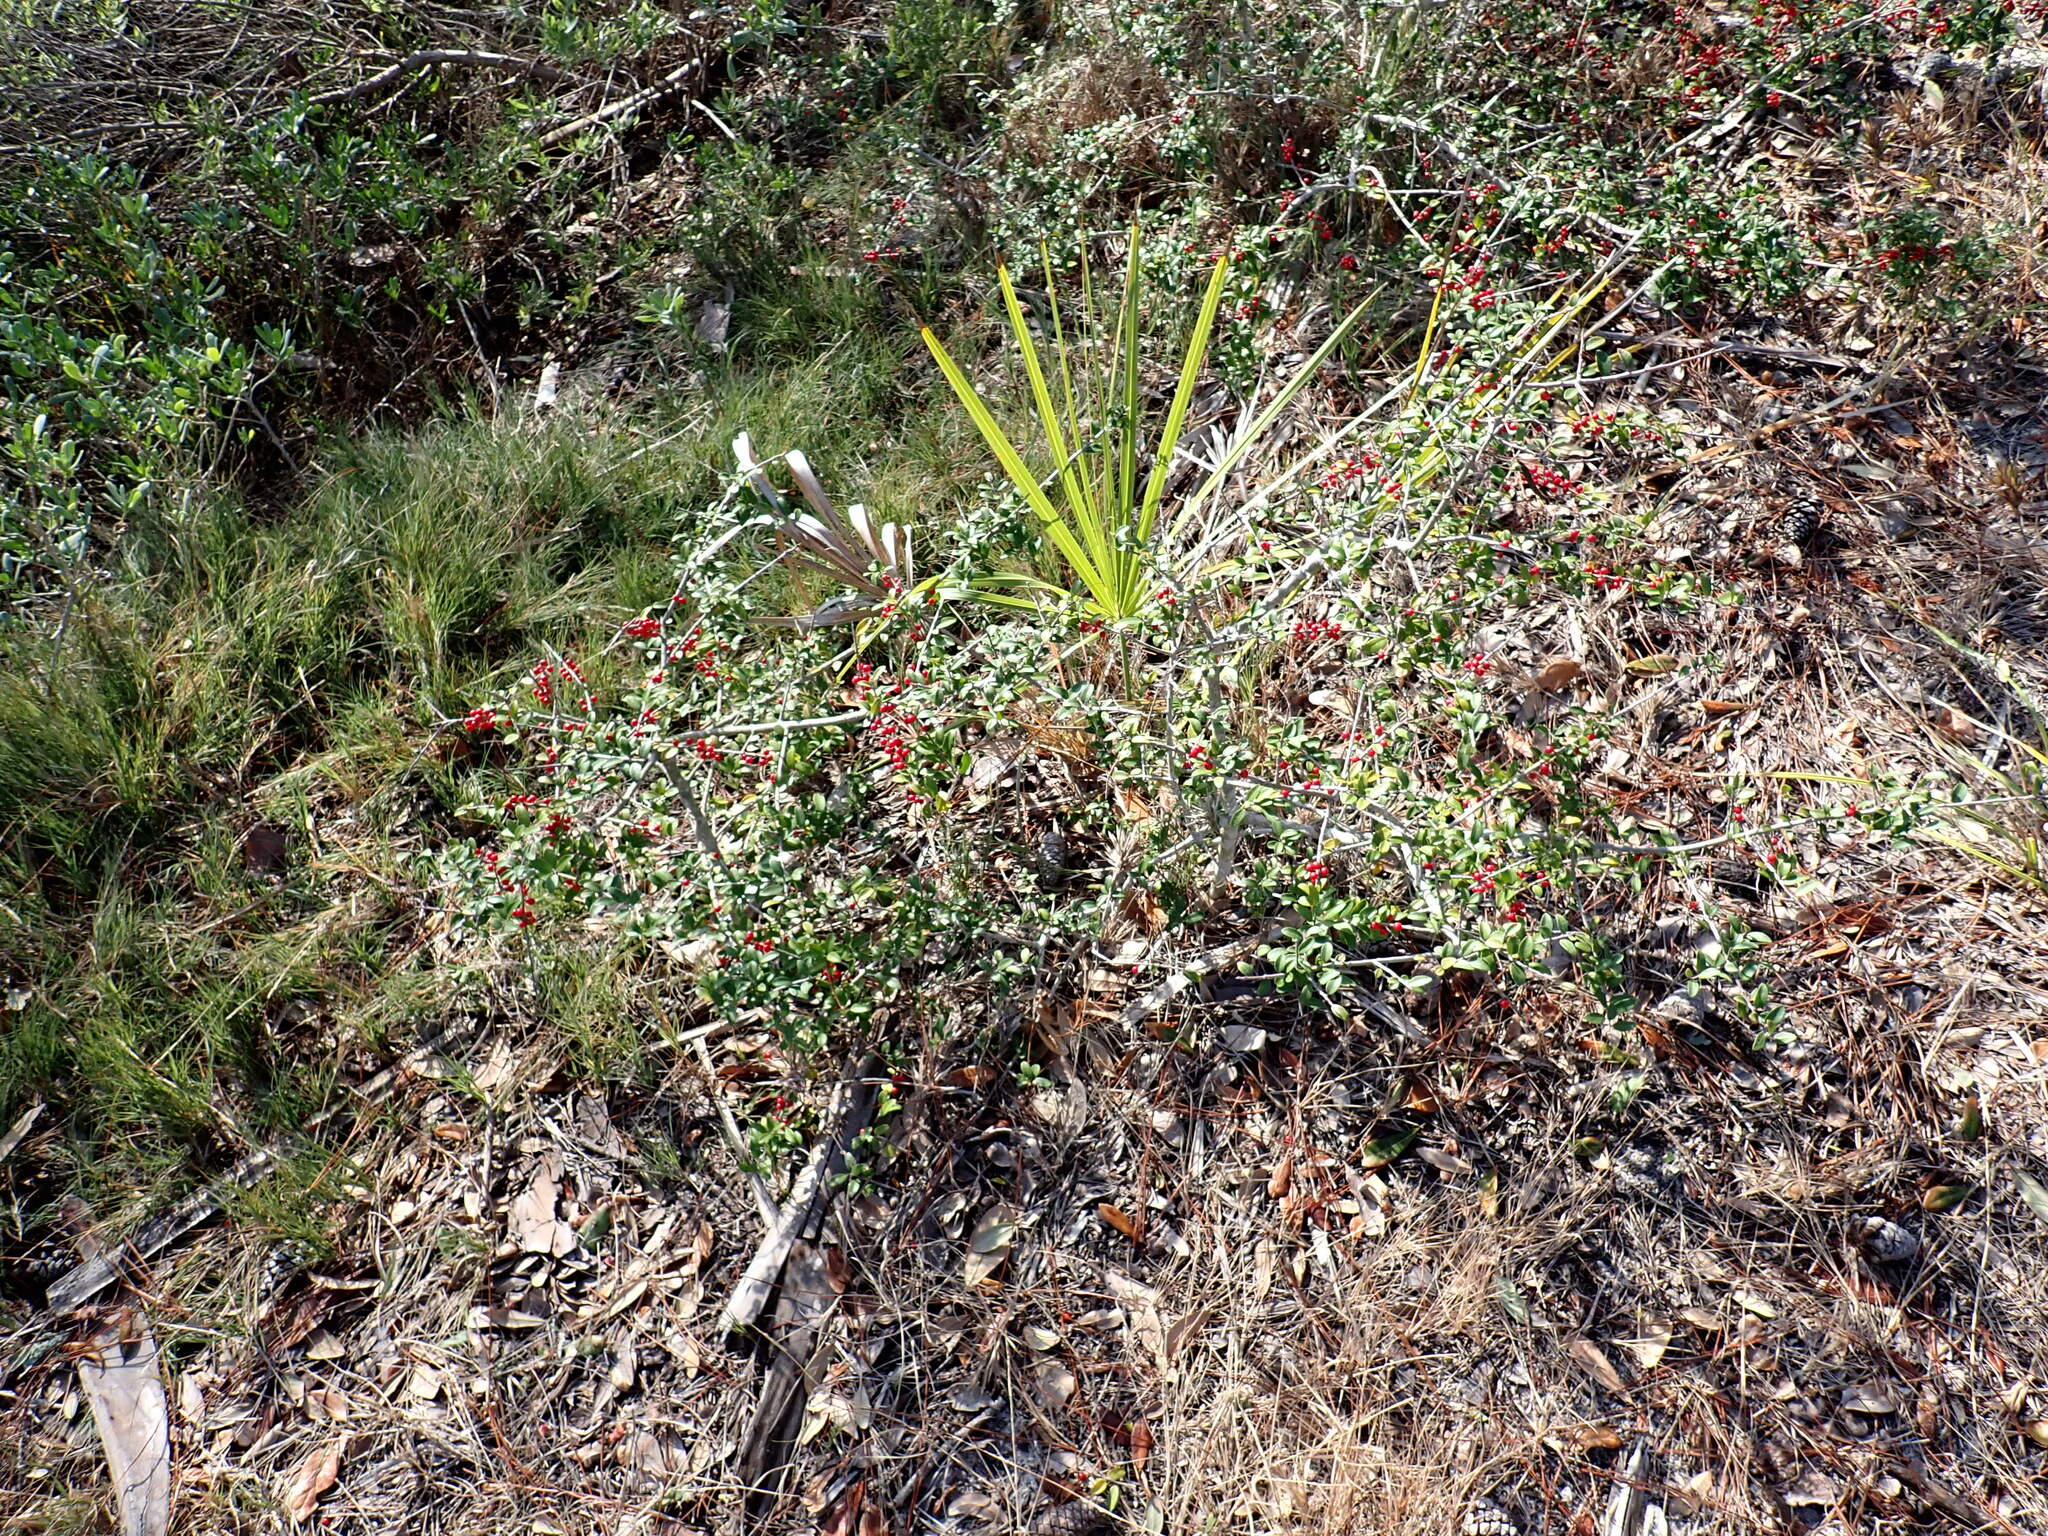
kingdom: Plantae
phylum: Tracheophyta
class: Magnoliopsida
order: Aquifoliales
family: Aquifoliaceae
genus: Ilex
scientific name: Ilex vomitoria
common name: Yaupon holly
